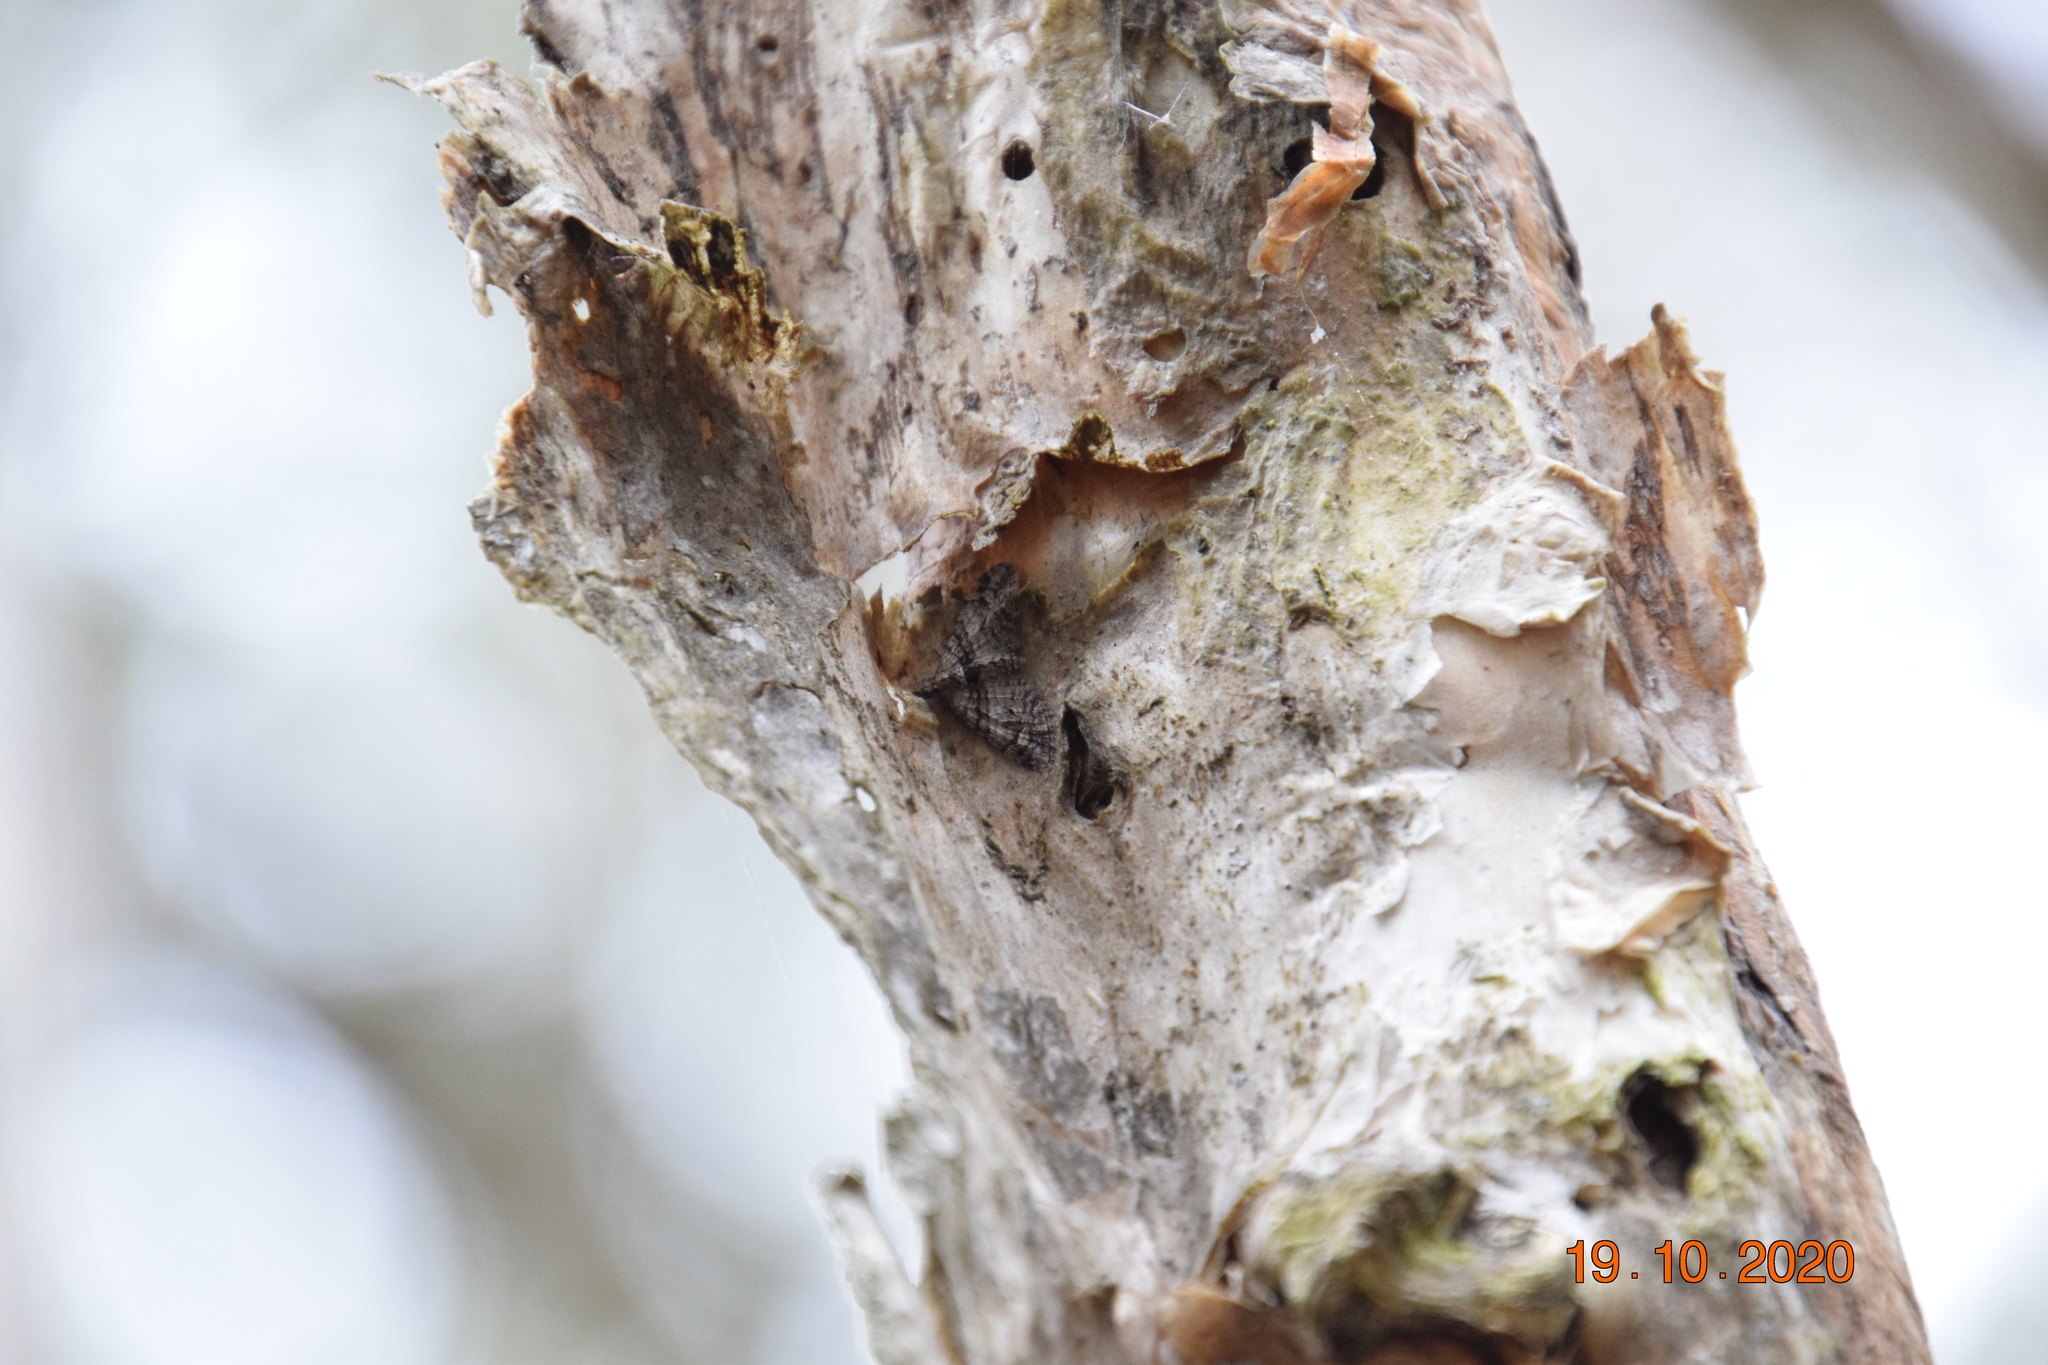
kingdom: Animalia
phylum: Arthropoda
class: Insecta
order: Lepidoptera
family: Geometridae
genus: Phrissogonus
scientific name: Phrissogonus laticostata
